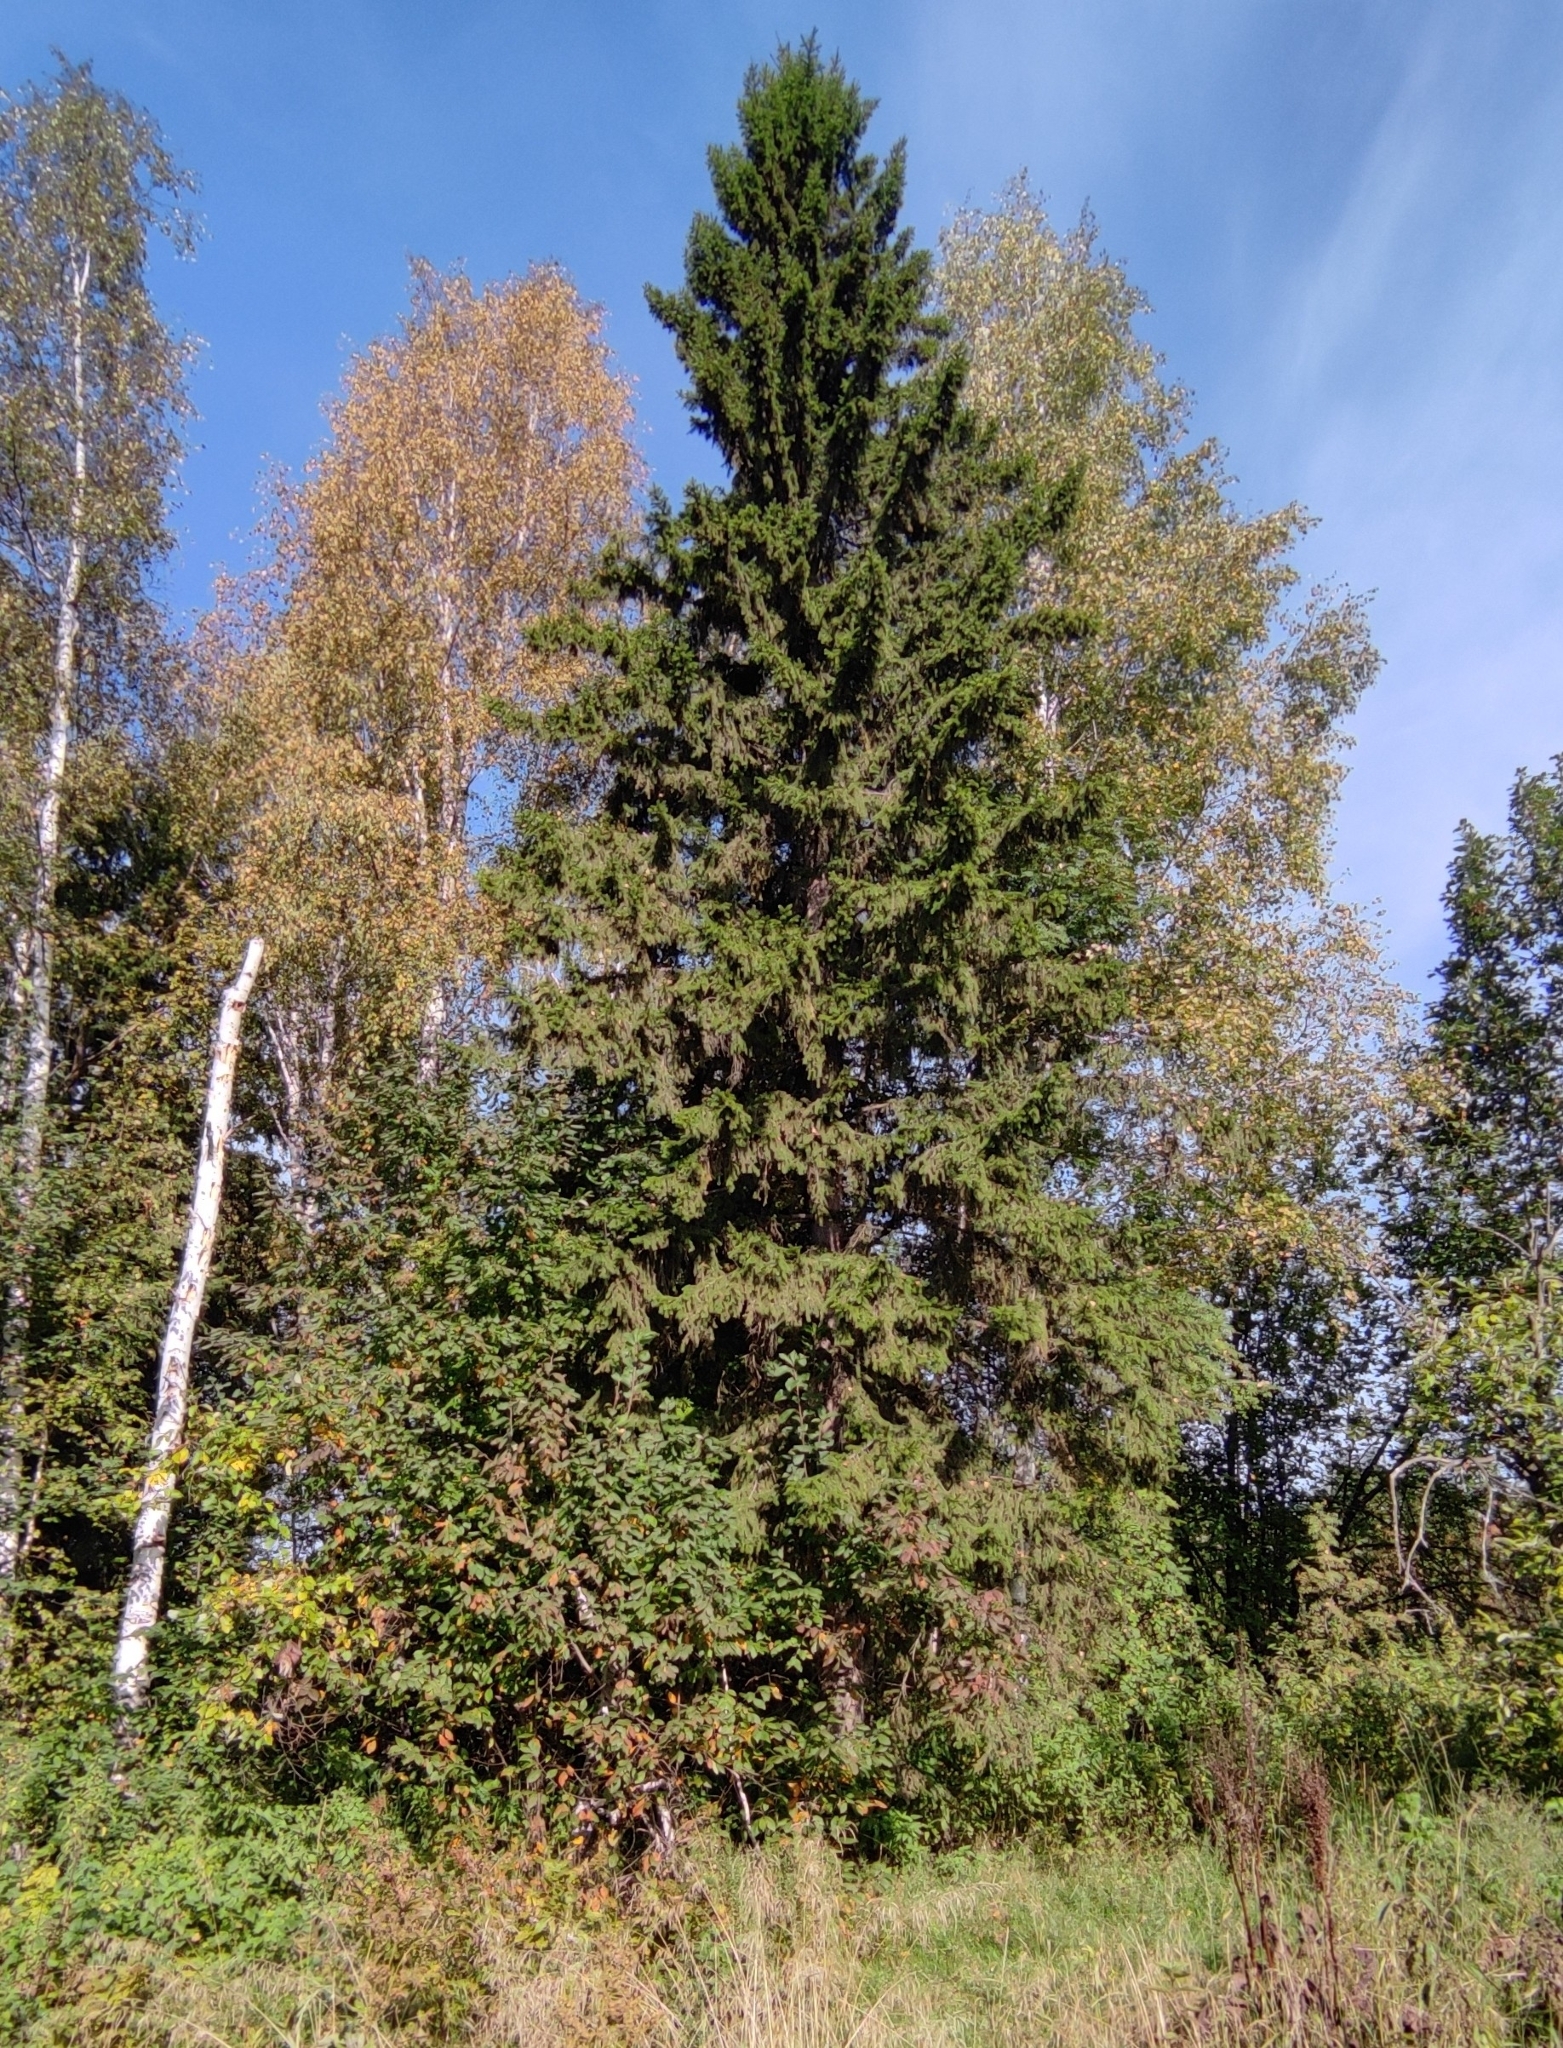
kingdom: Plantae
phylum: Tracheophyta
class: Pinopsida
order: Pinales
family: Pinaceae
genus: Picea
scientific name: Picea obovata
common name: Siberian spruce
